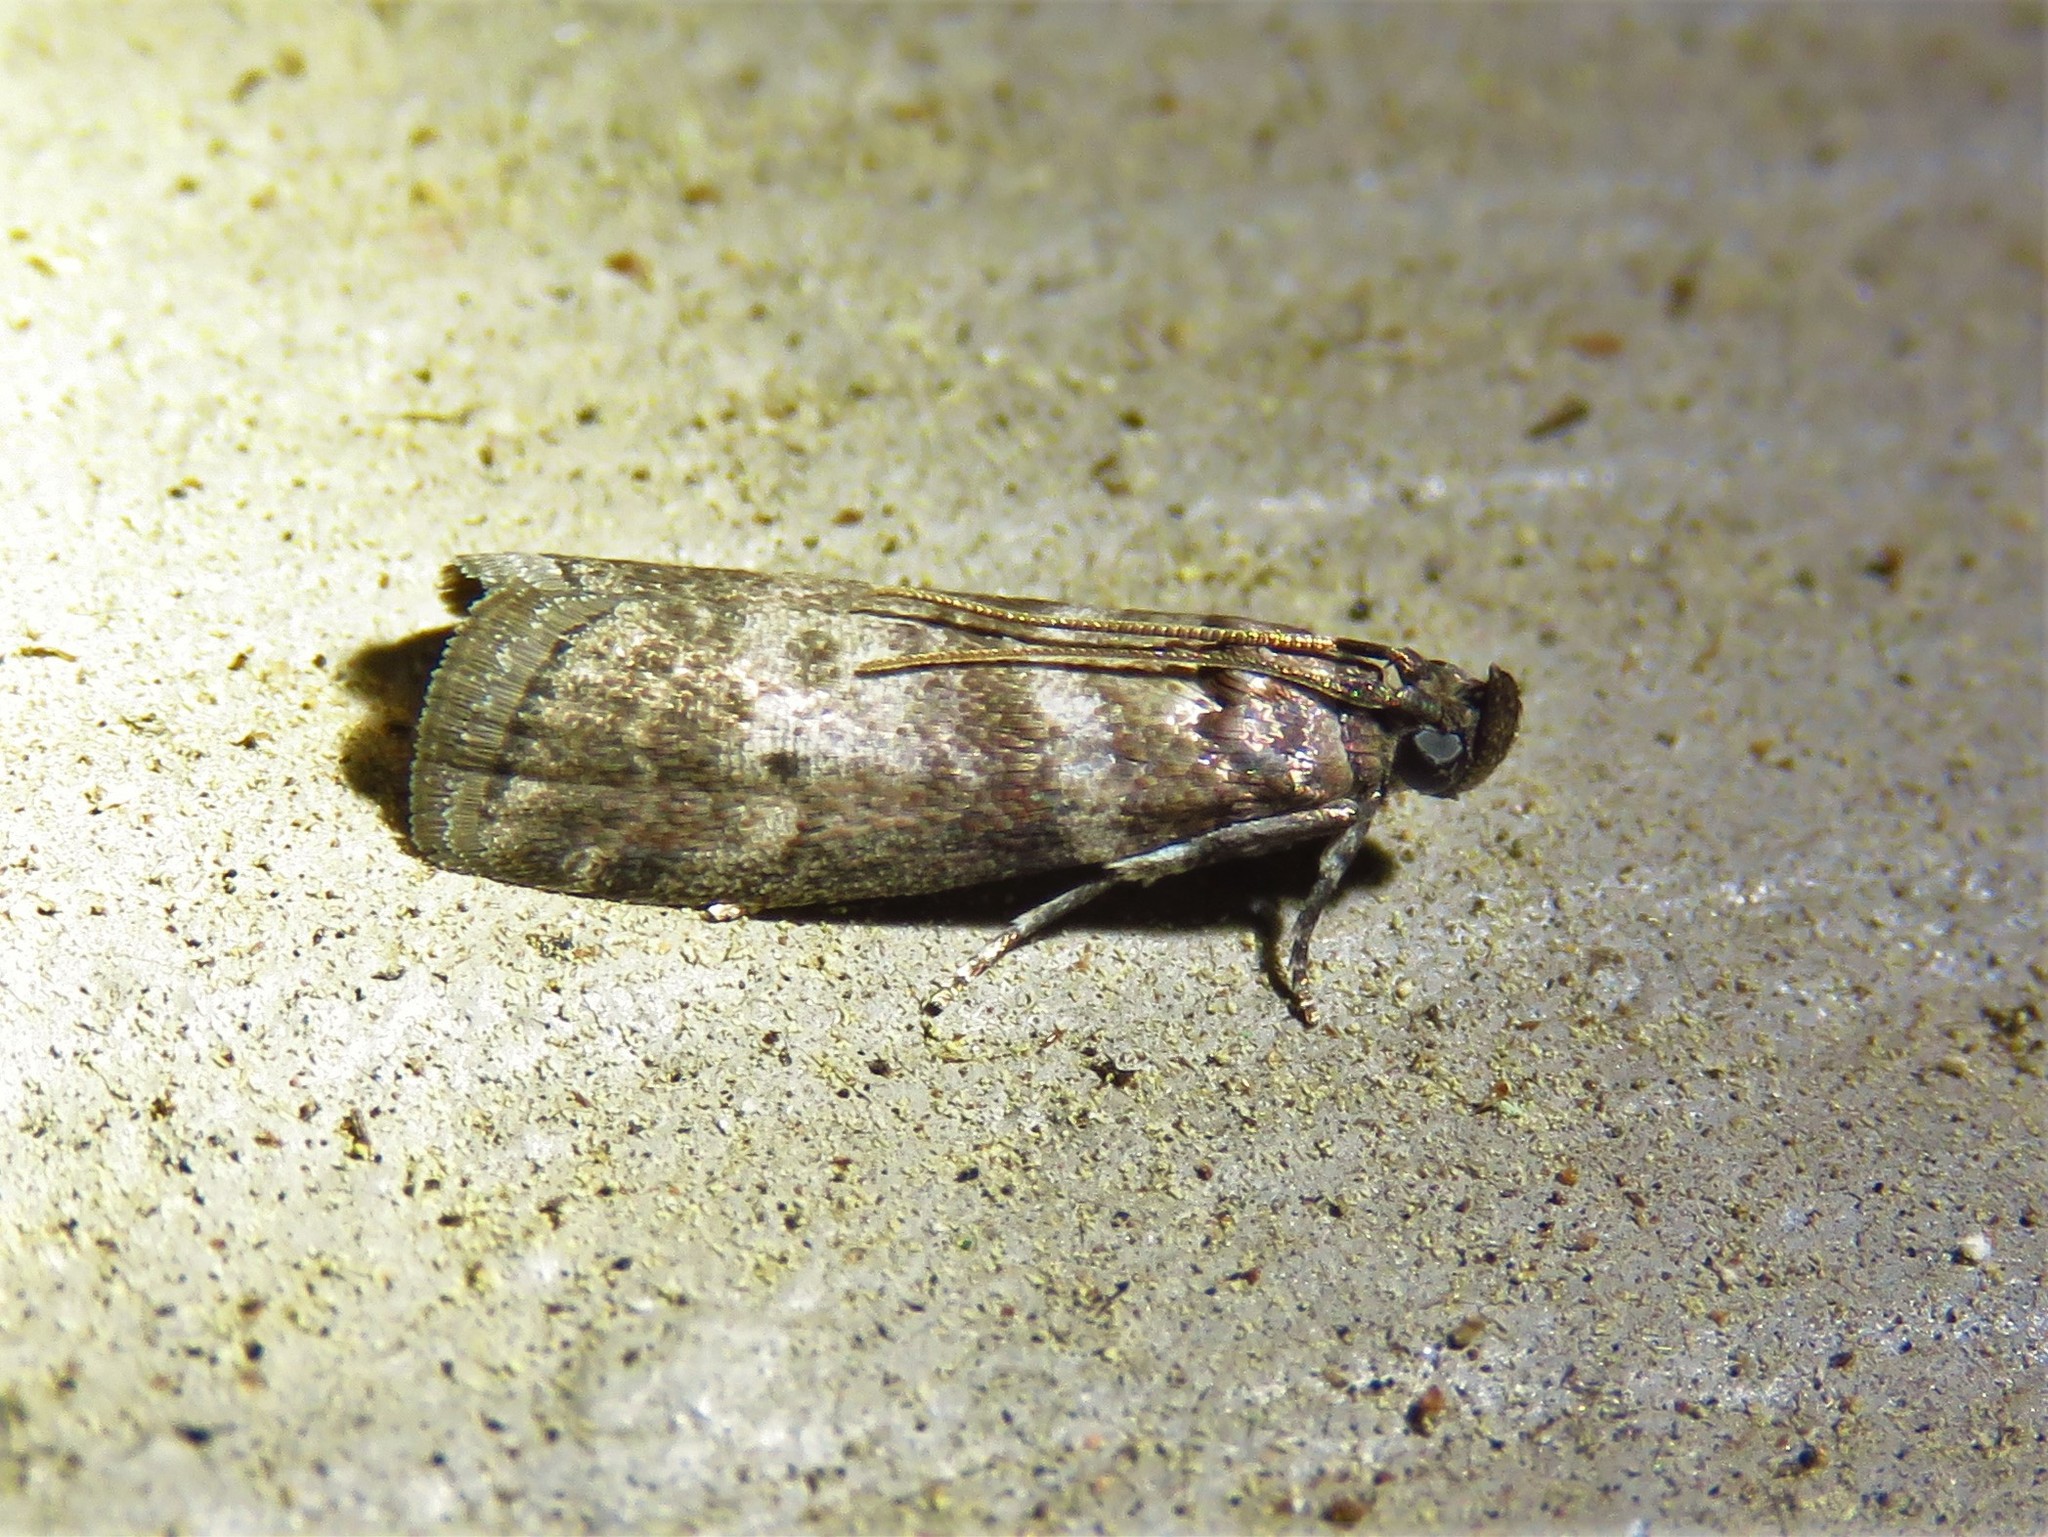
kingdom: Animalia
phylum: Arthropoda
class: Insecta
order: Lepidoptera
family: Pyralidae
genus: Sciota
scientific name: Sciota uvinella
